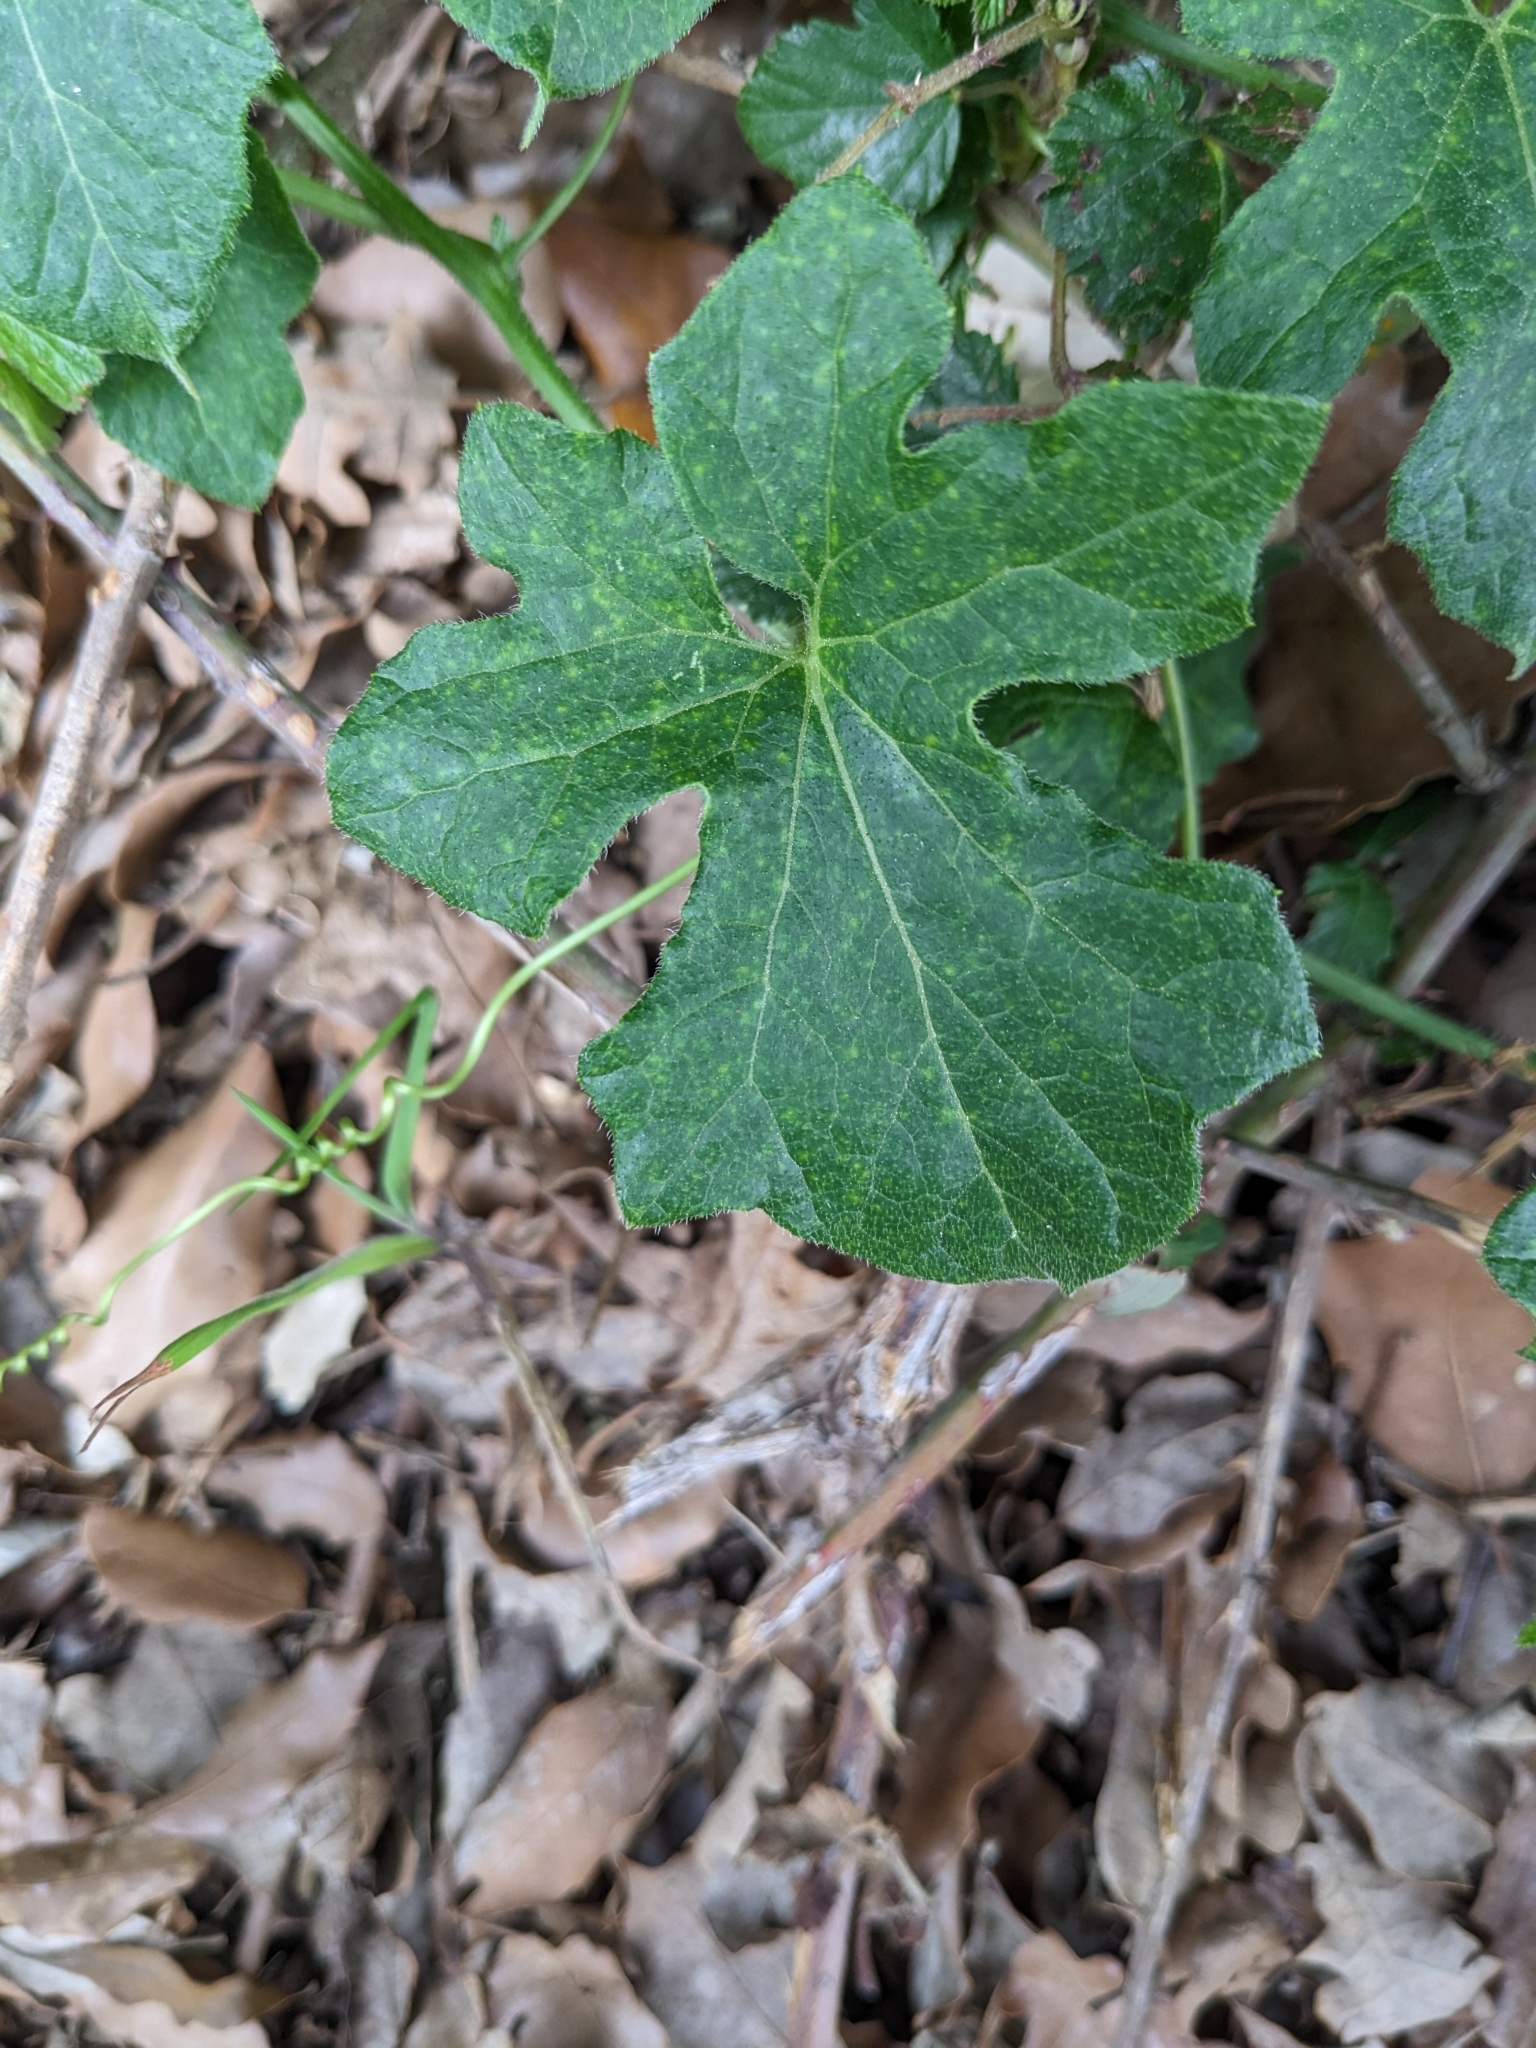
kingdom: Plantae
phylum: Tracheophyta
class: Magnoliopsida
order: Cucurbitales
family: Cucurbitaceae
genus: Bryonia
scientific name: Bryonia dioica
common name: White bryony
